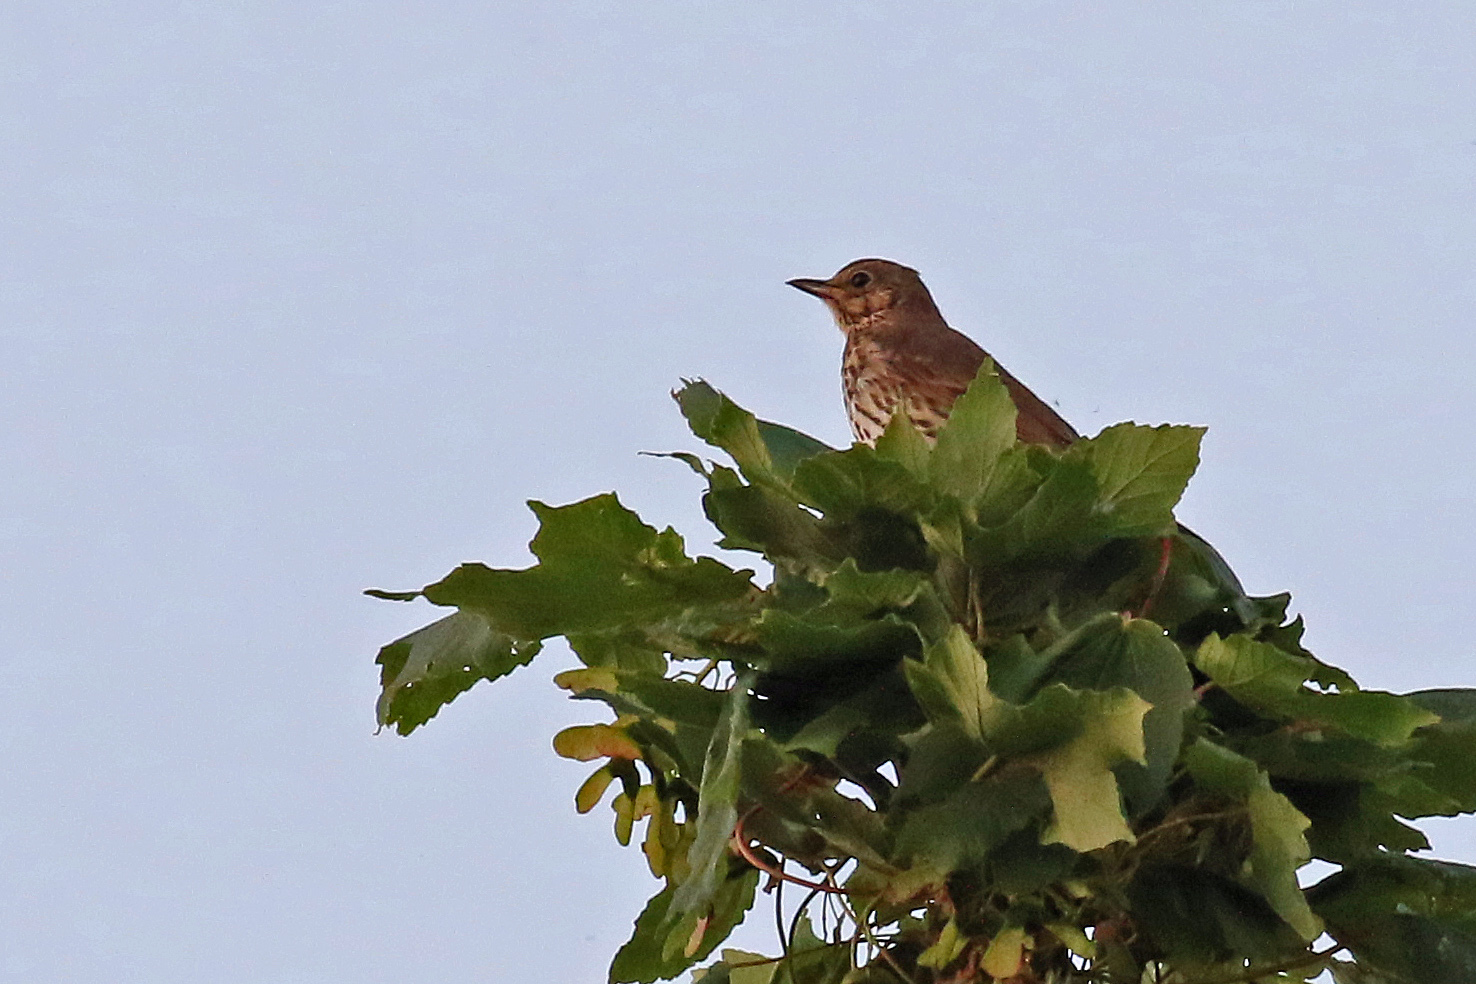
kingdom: Animalia
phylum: Chordata
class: Aves
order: Passeriformes
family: Turdidae
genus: Turdus
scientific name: Turdus philomelos
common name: Song thrush
